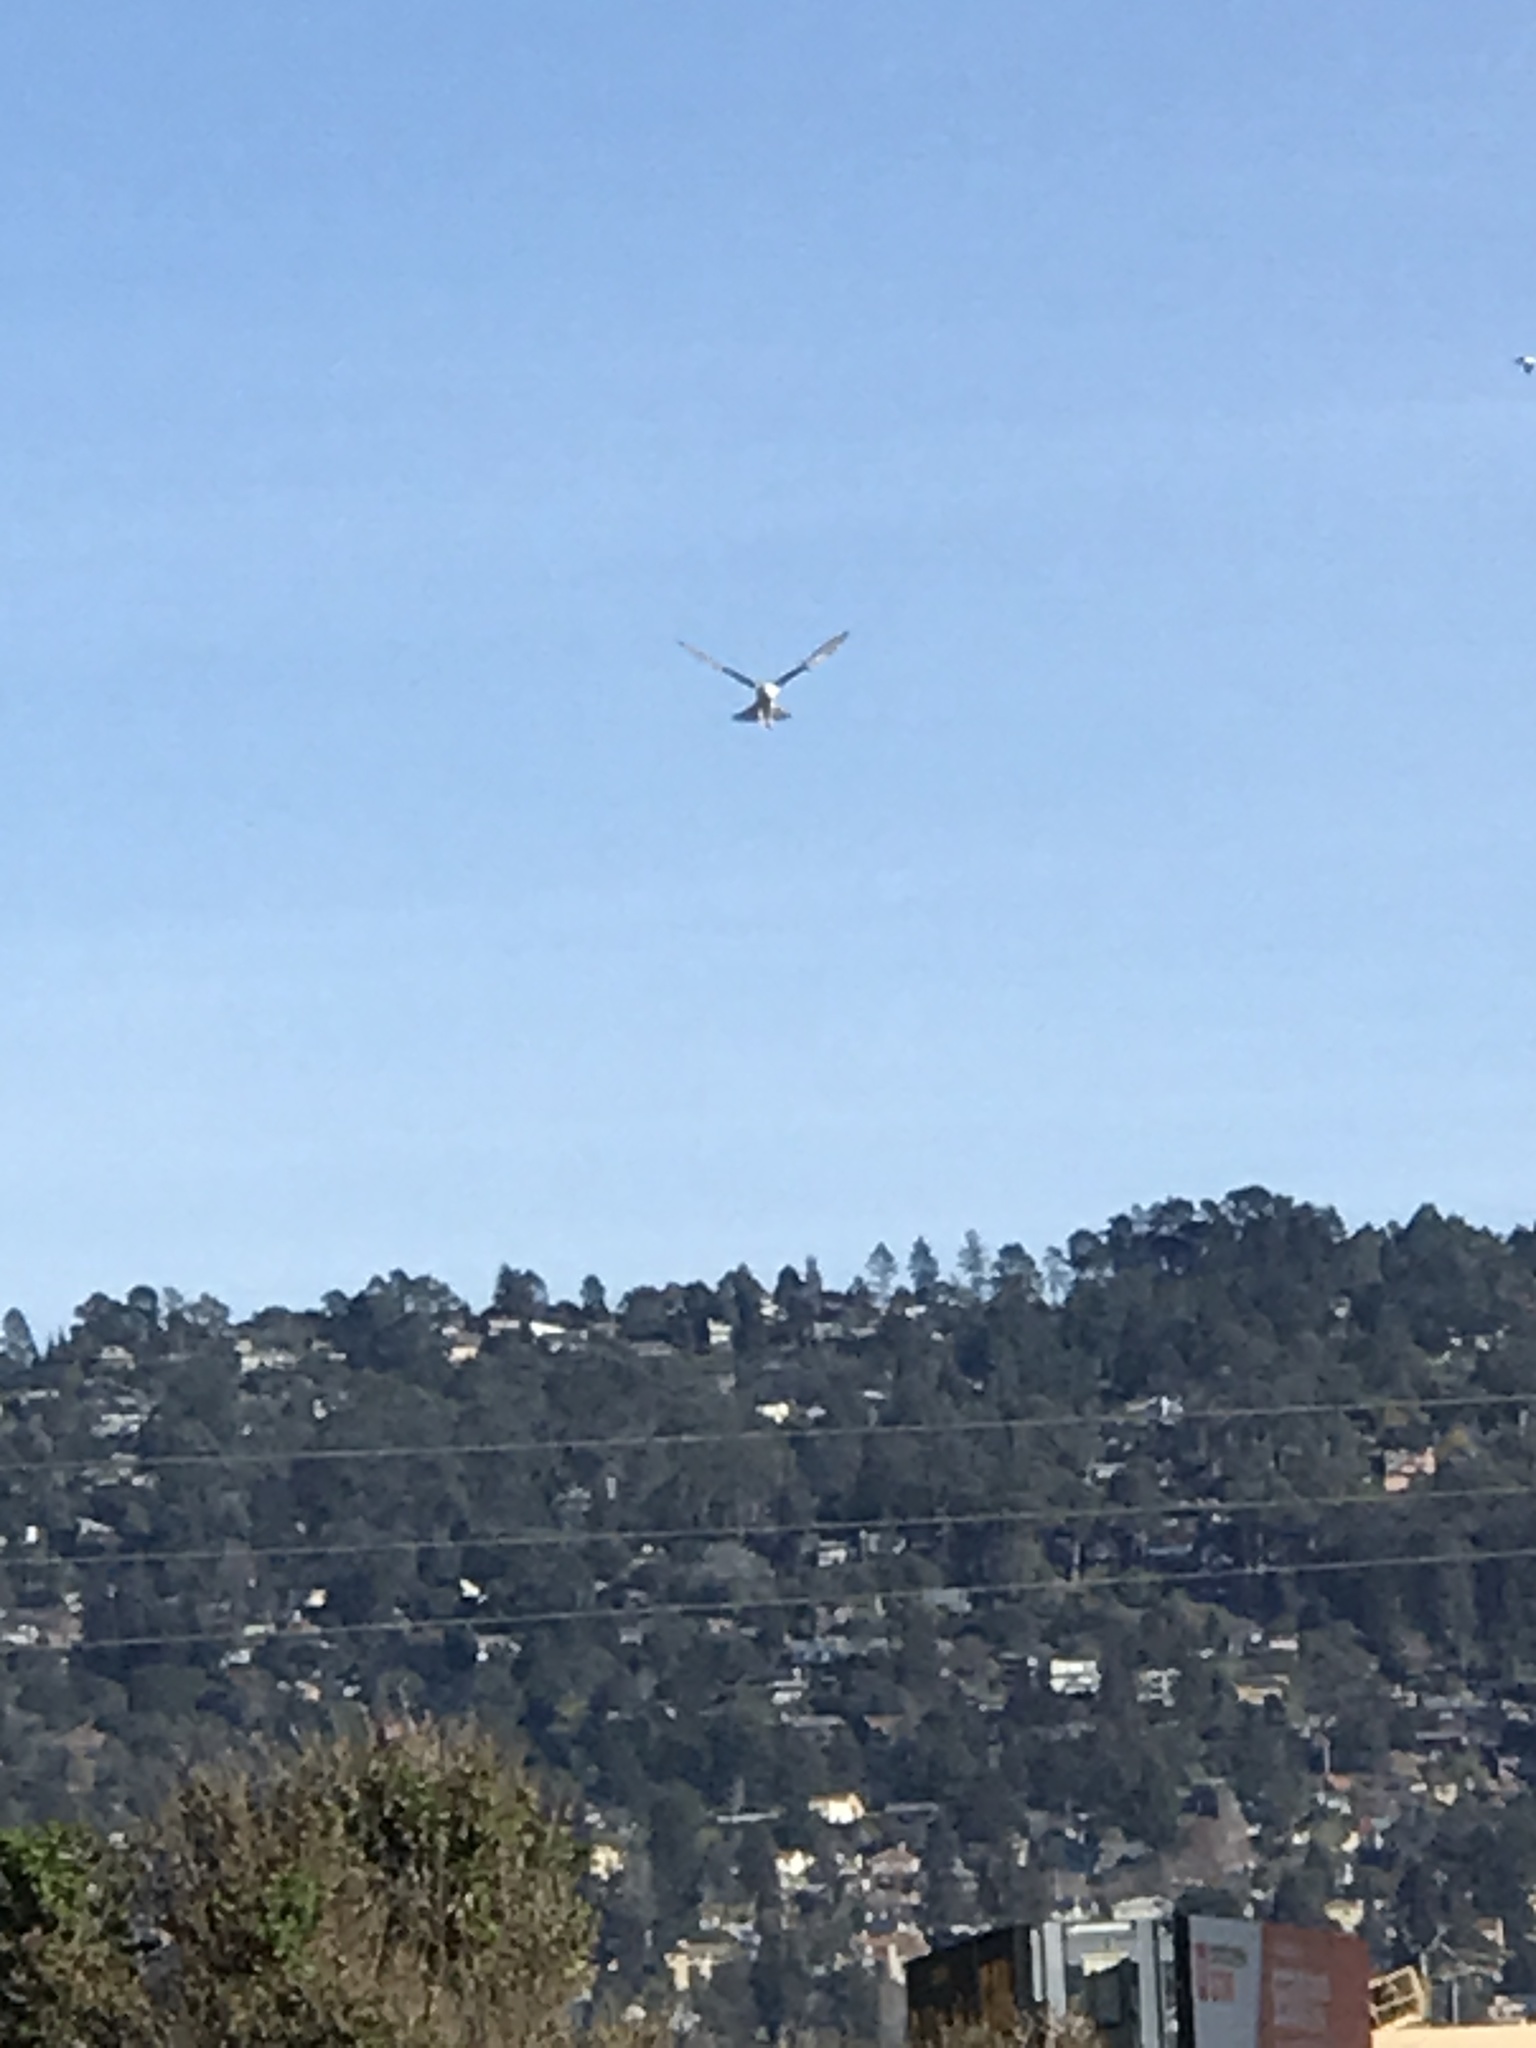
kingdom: Animalia
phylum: Chordata
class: Aves
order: Accipitriformes
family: Accipitridae
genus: Elanus
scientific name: Elanus leucurus
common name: White-tailed kite
